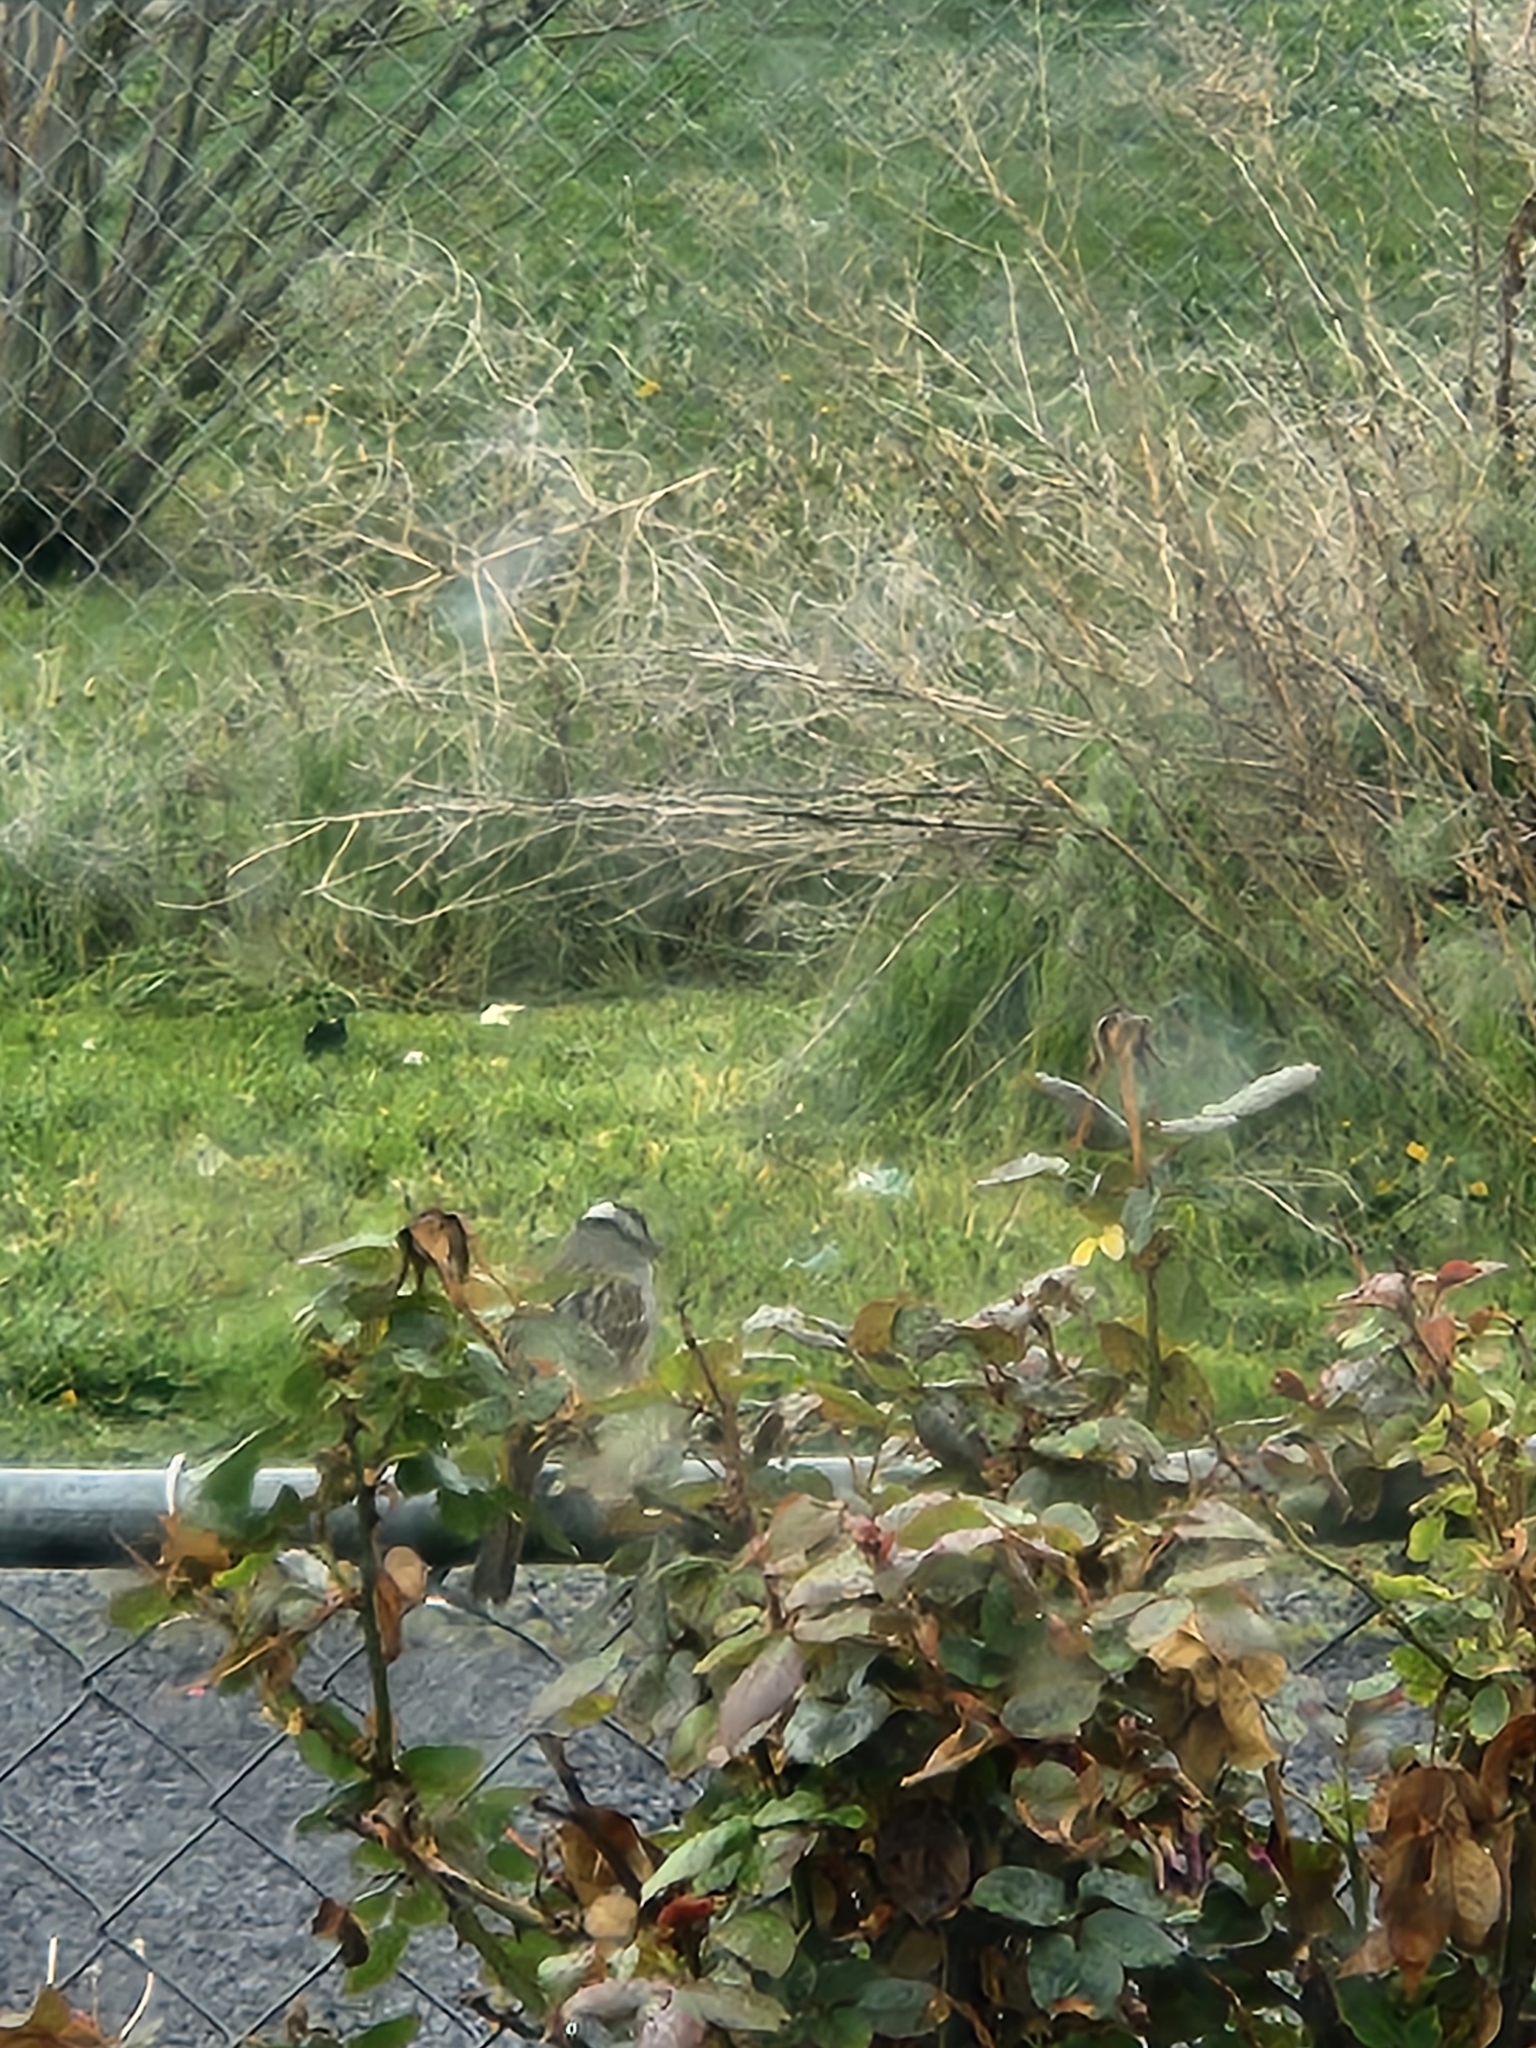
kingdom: Animalia
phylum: Chordata
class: Aves
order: Passeriformes
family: Passerellidae
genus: Zonotrichia
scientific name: Zonotrichia leucophrys
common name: White-crowned sparrow
